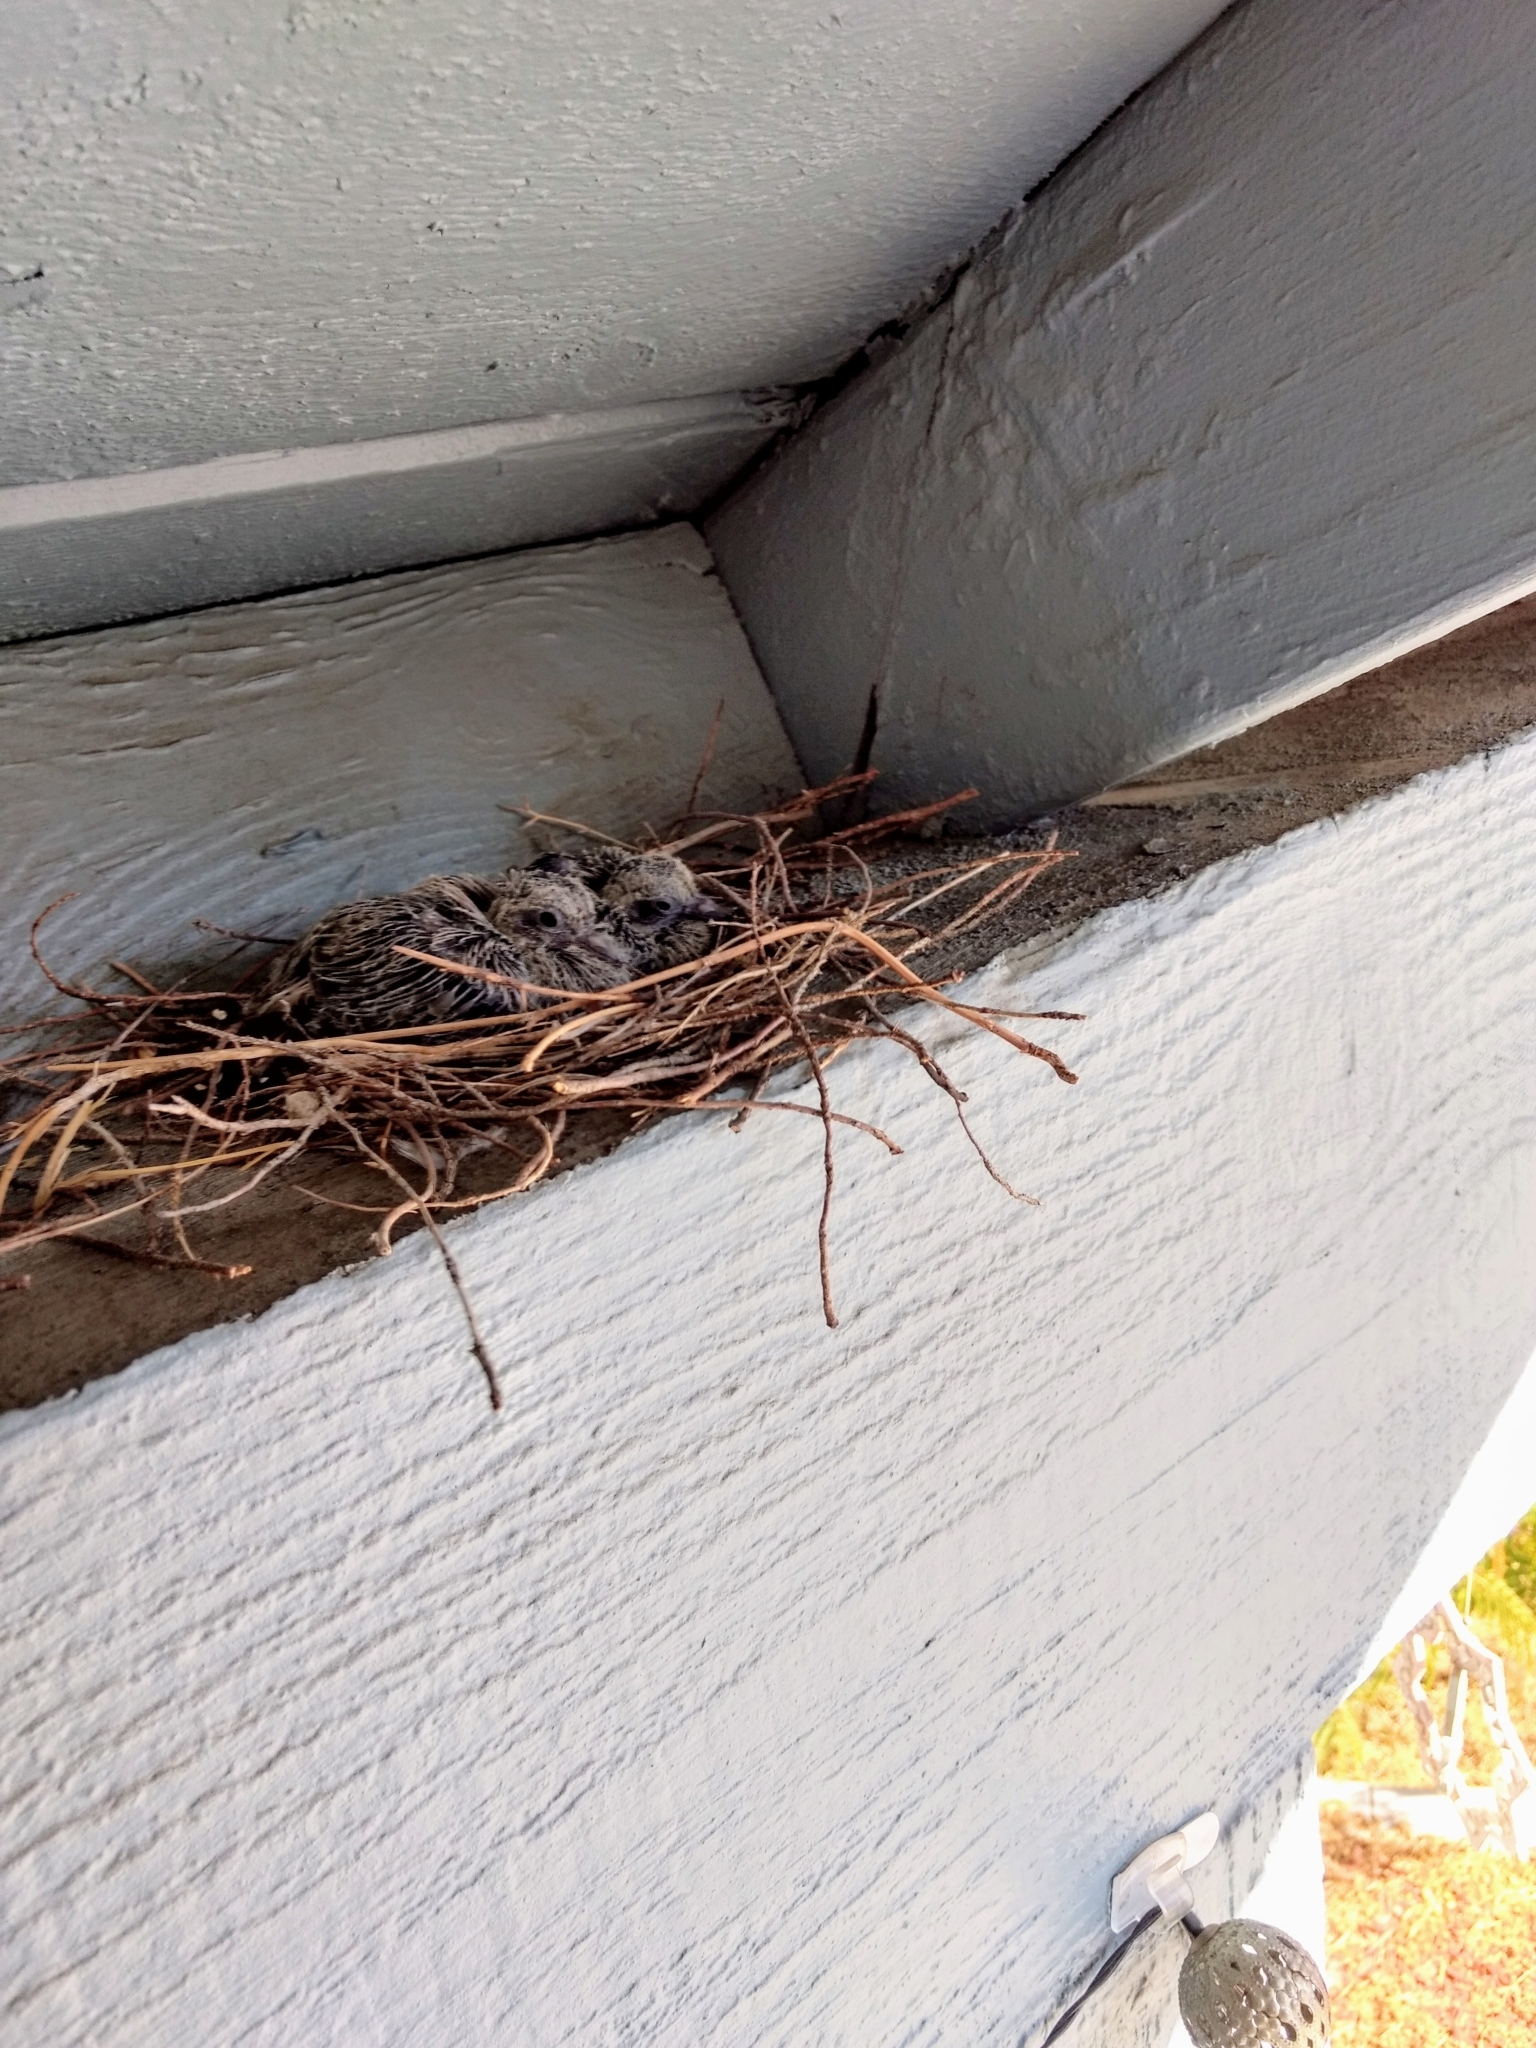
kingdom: Animalia
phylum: Chordata
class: Aves
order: Columbiformes
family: Columbidae
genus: Zenaida
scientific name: Zenaida macroura
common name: Mourning dove
